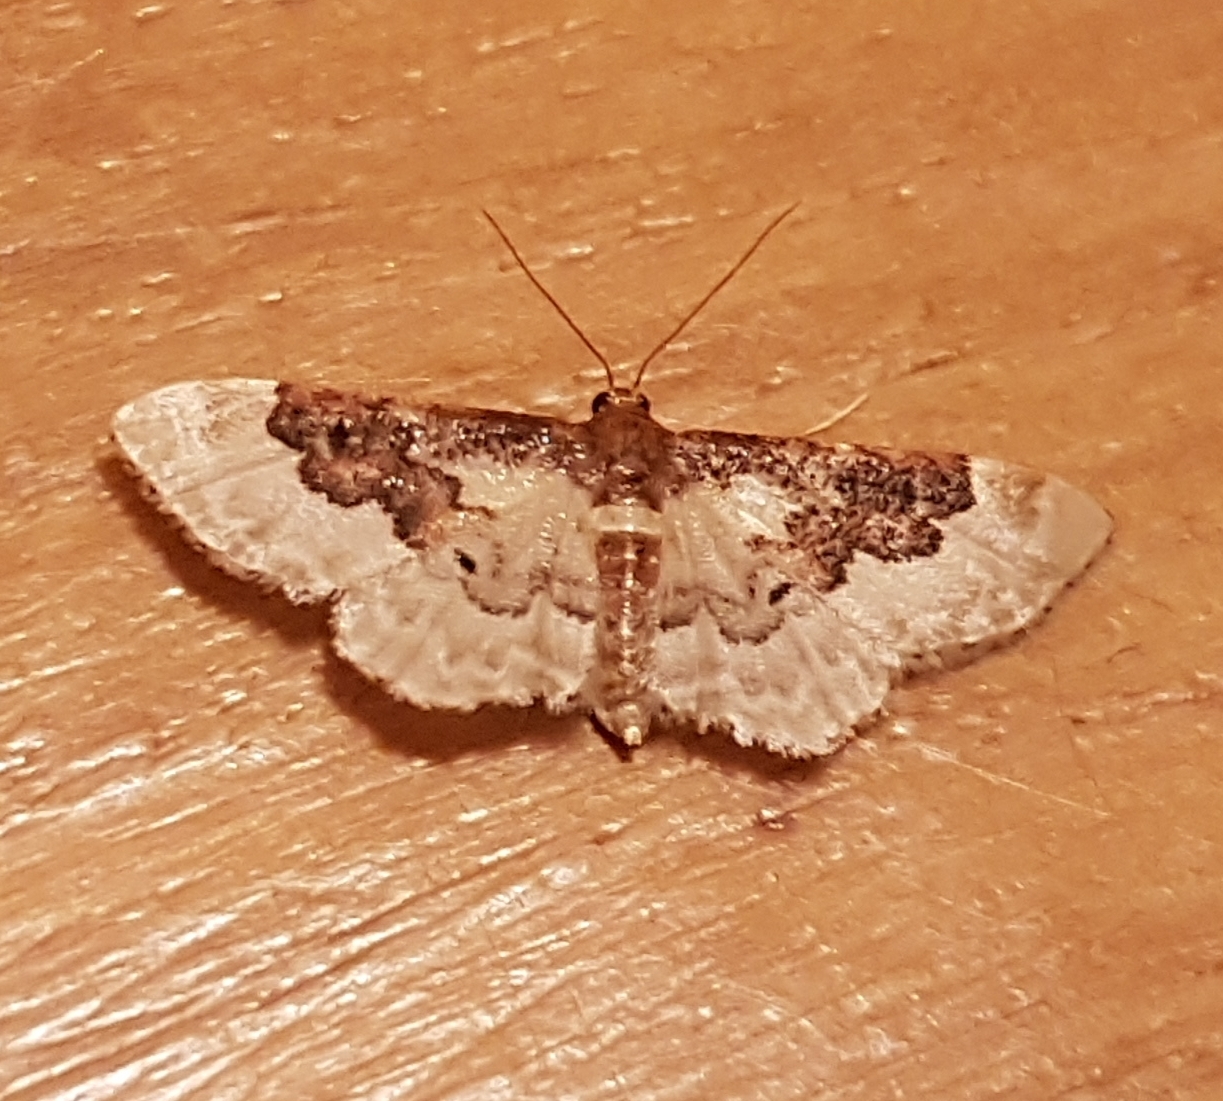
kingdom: Animalia
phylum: Arthropoda
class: Insecta
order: Lepidoptera
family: Geometridae
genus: Idaea
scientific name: Idaea rusticata
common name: Least carpet
